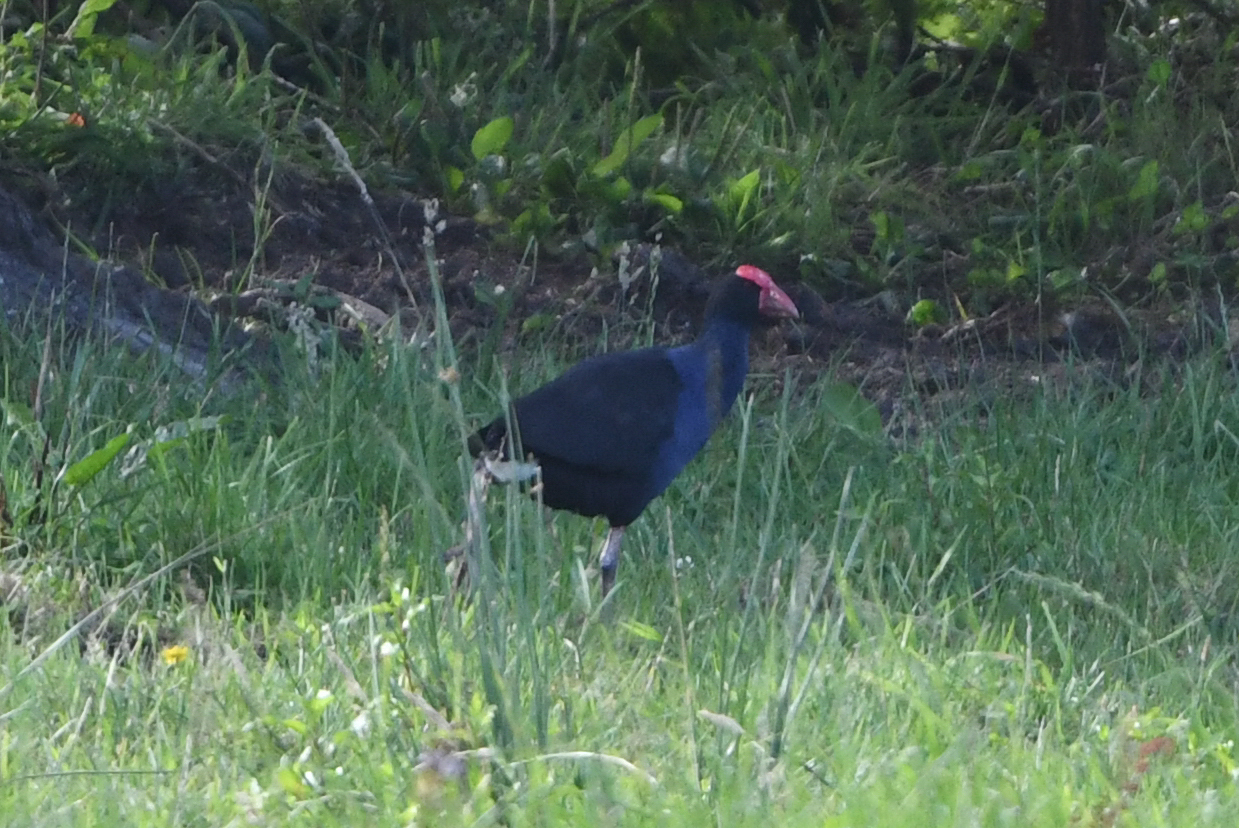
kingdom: Animalia
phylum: Chordata
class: Aves
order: Gruiformes
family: Rallidae
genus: Porphyrio
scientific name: Porphyrio melanotus
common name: Australasian swamphen
